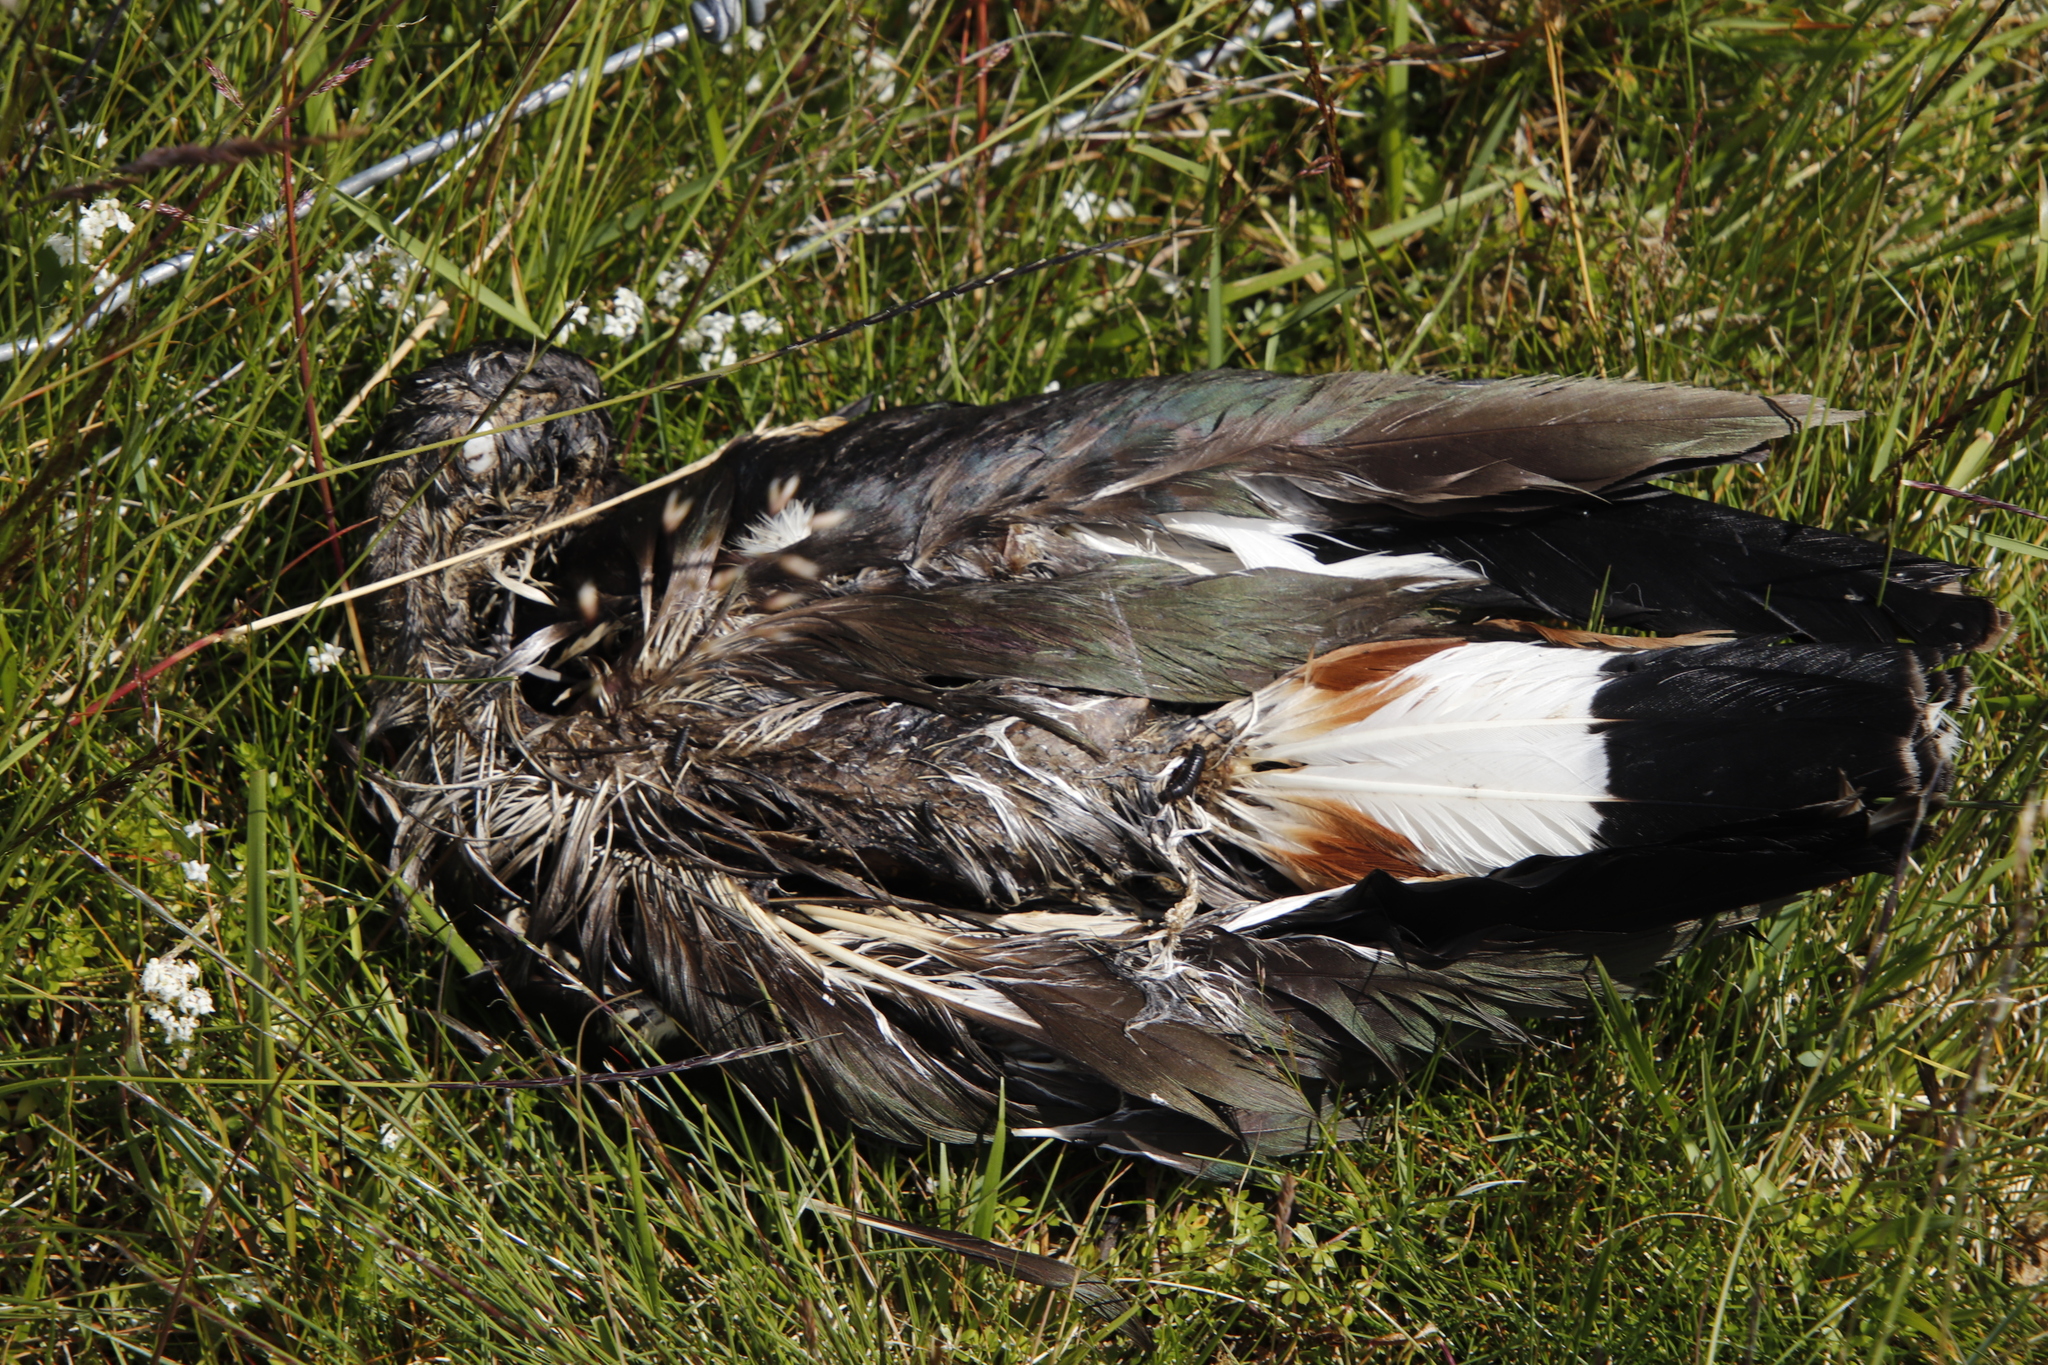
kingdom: Animalia
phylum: Chordata
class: Aves
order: Charadriiformes
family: Charadriidae
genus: Vanellus
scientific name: Vanellus vanellus
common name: Northern lapwing
